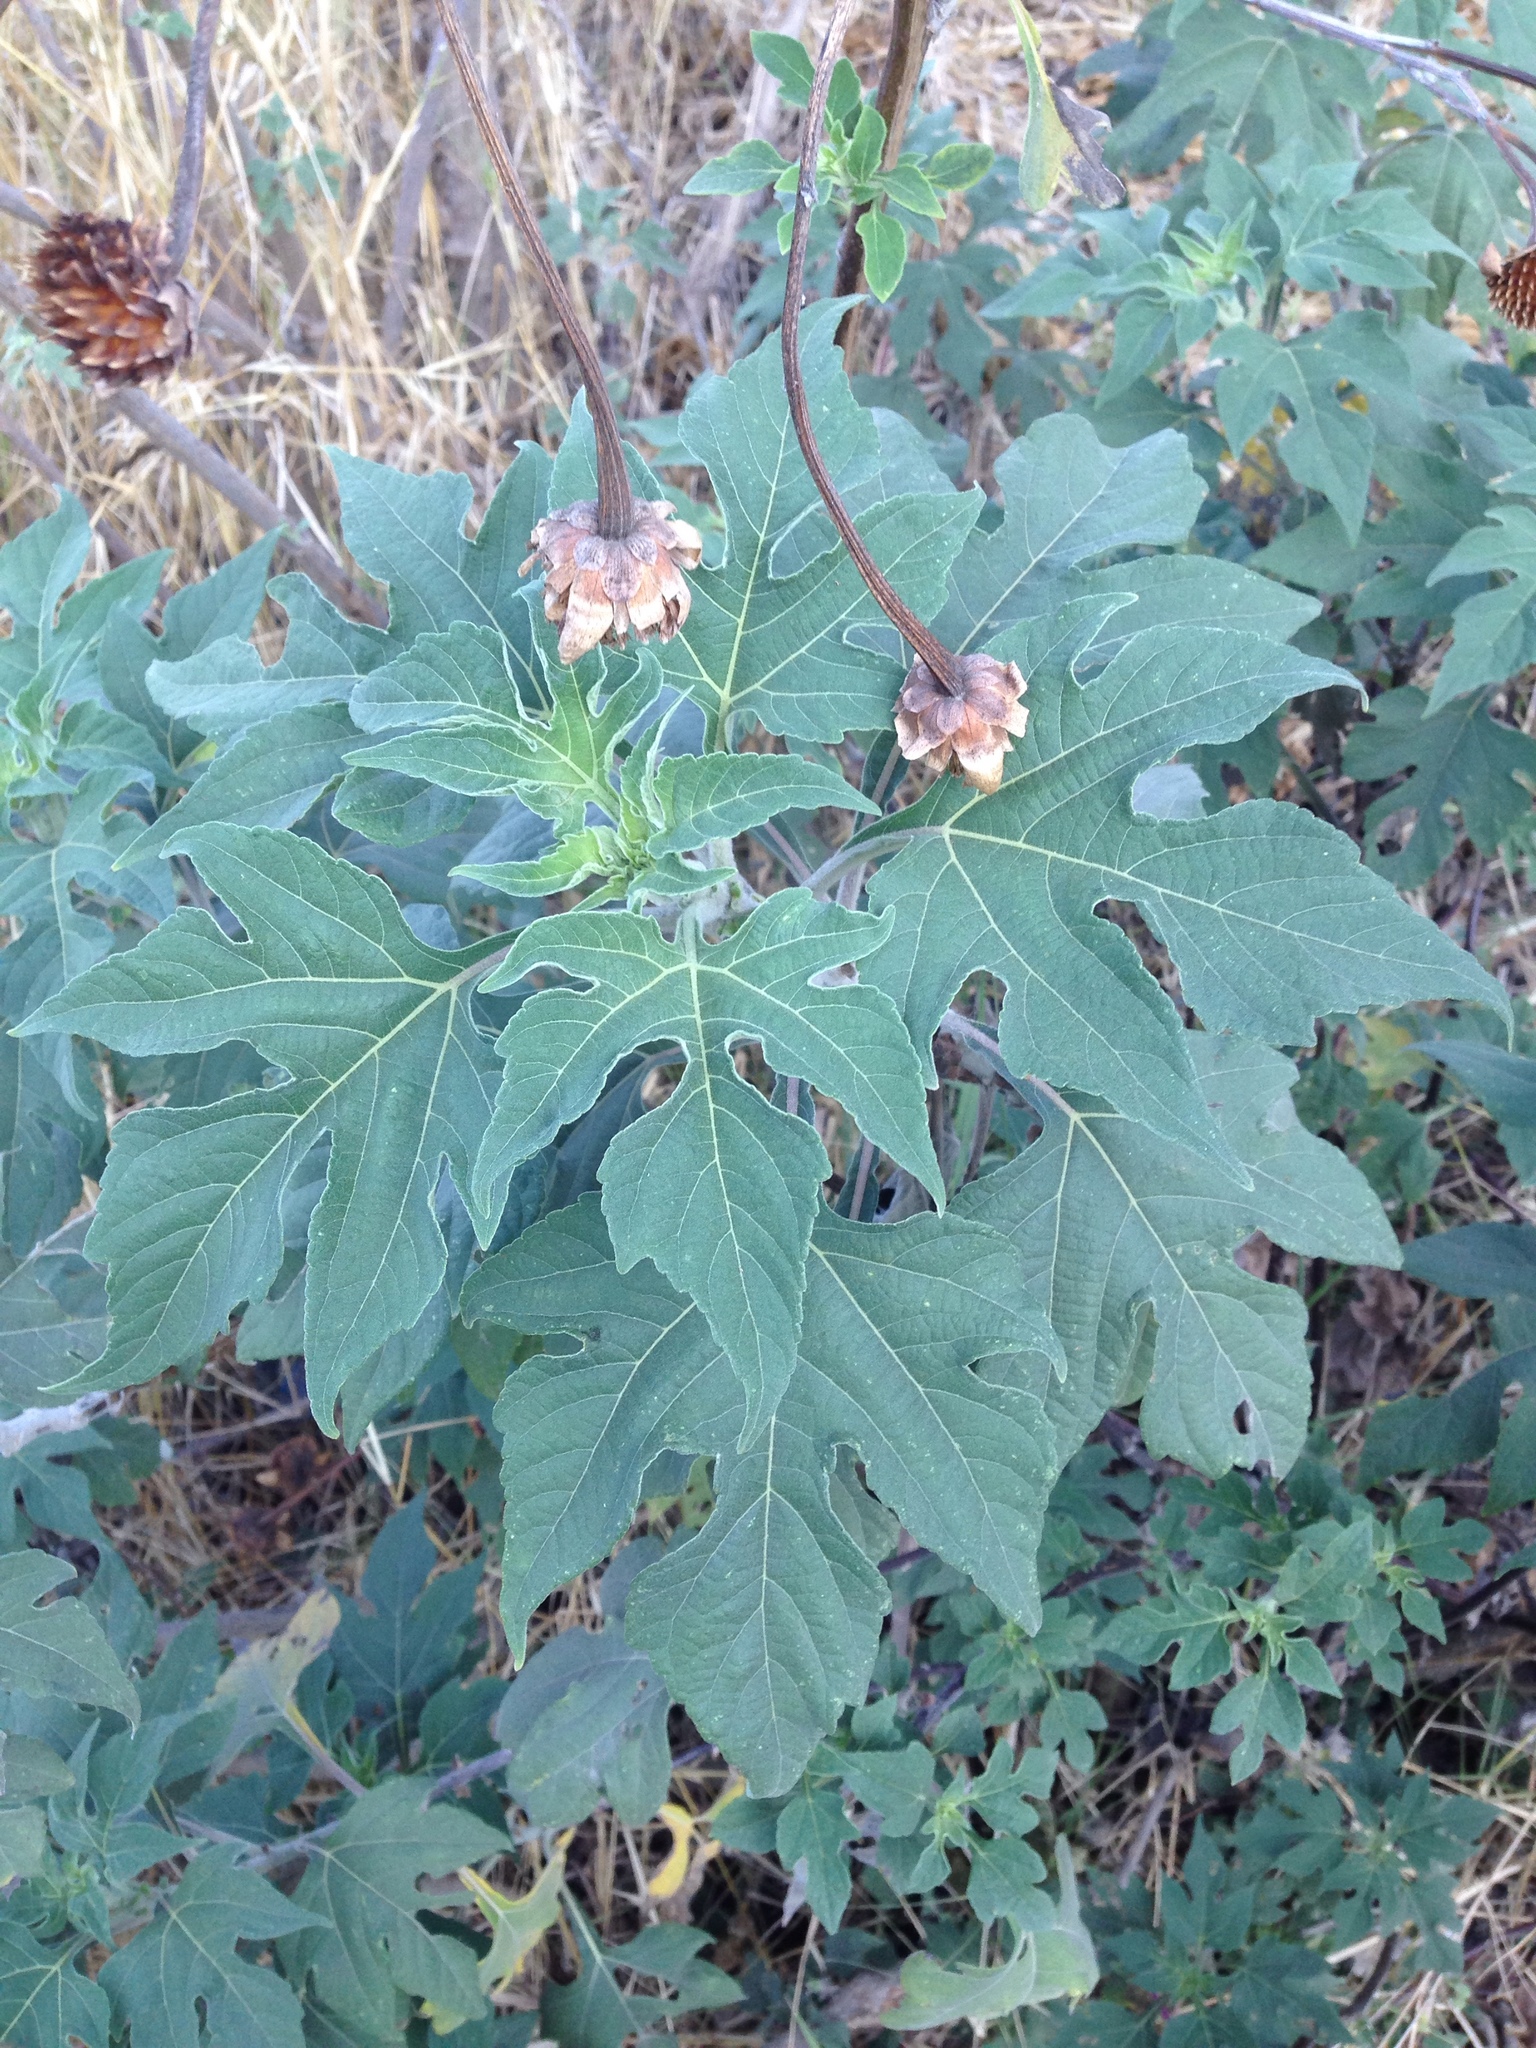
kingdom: Plantae
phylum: Tracheophyta
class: Magnoliopsida
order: Asterales
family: Asteraceae
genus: Tithonia
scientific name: Tithonia diversifolia
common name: Tree marigold
